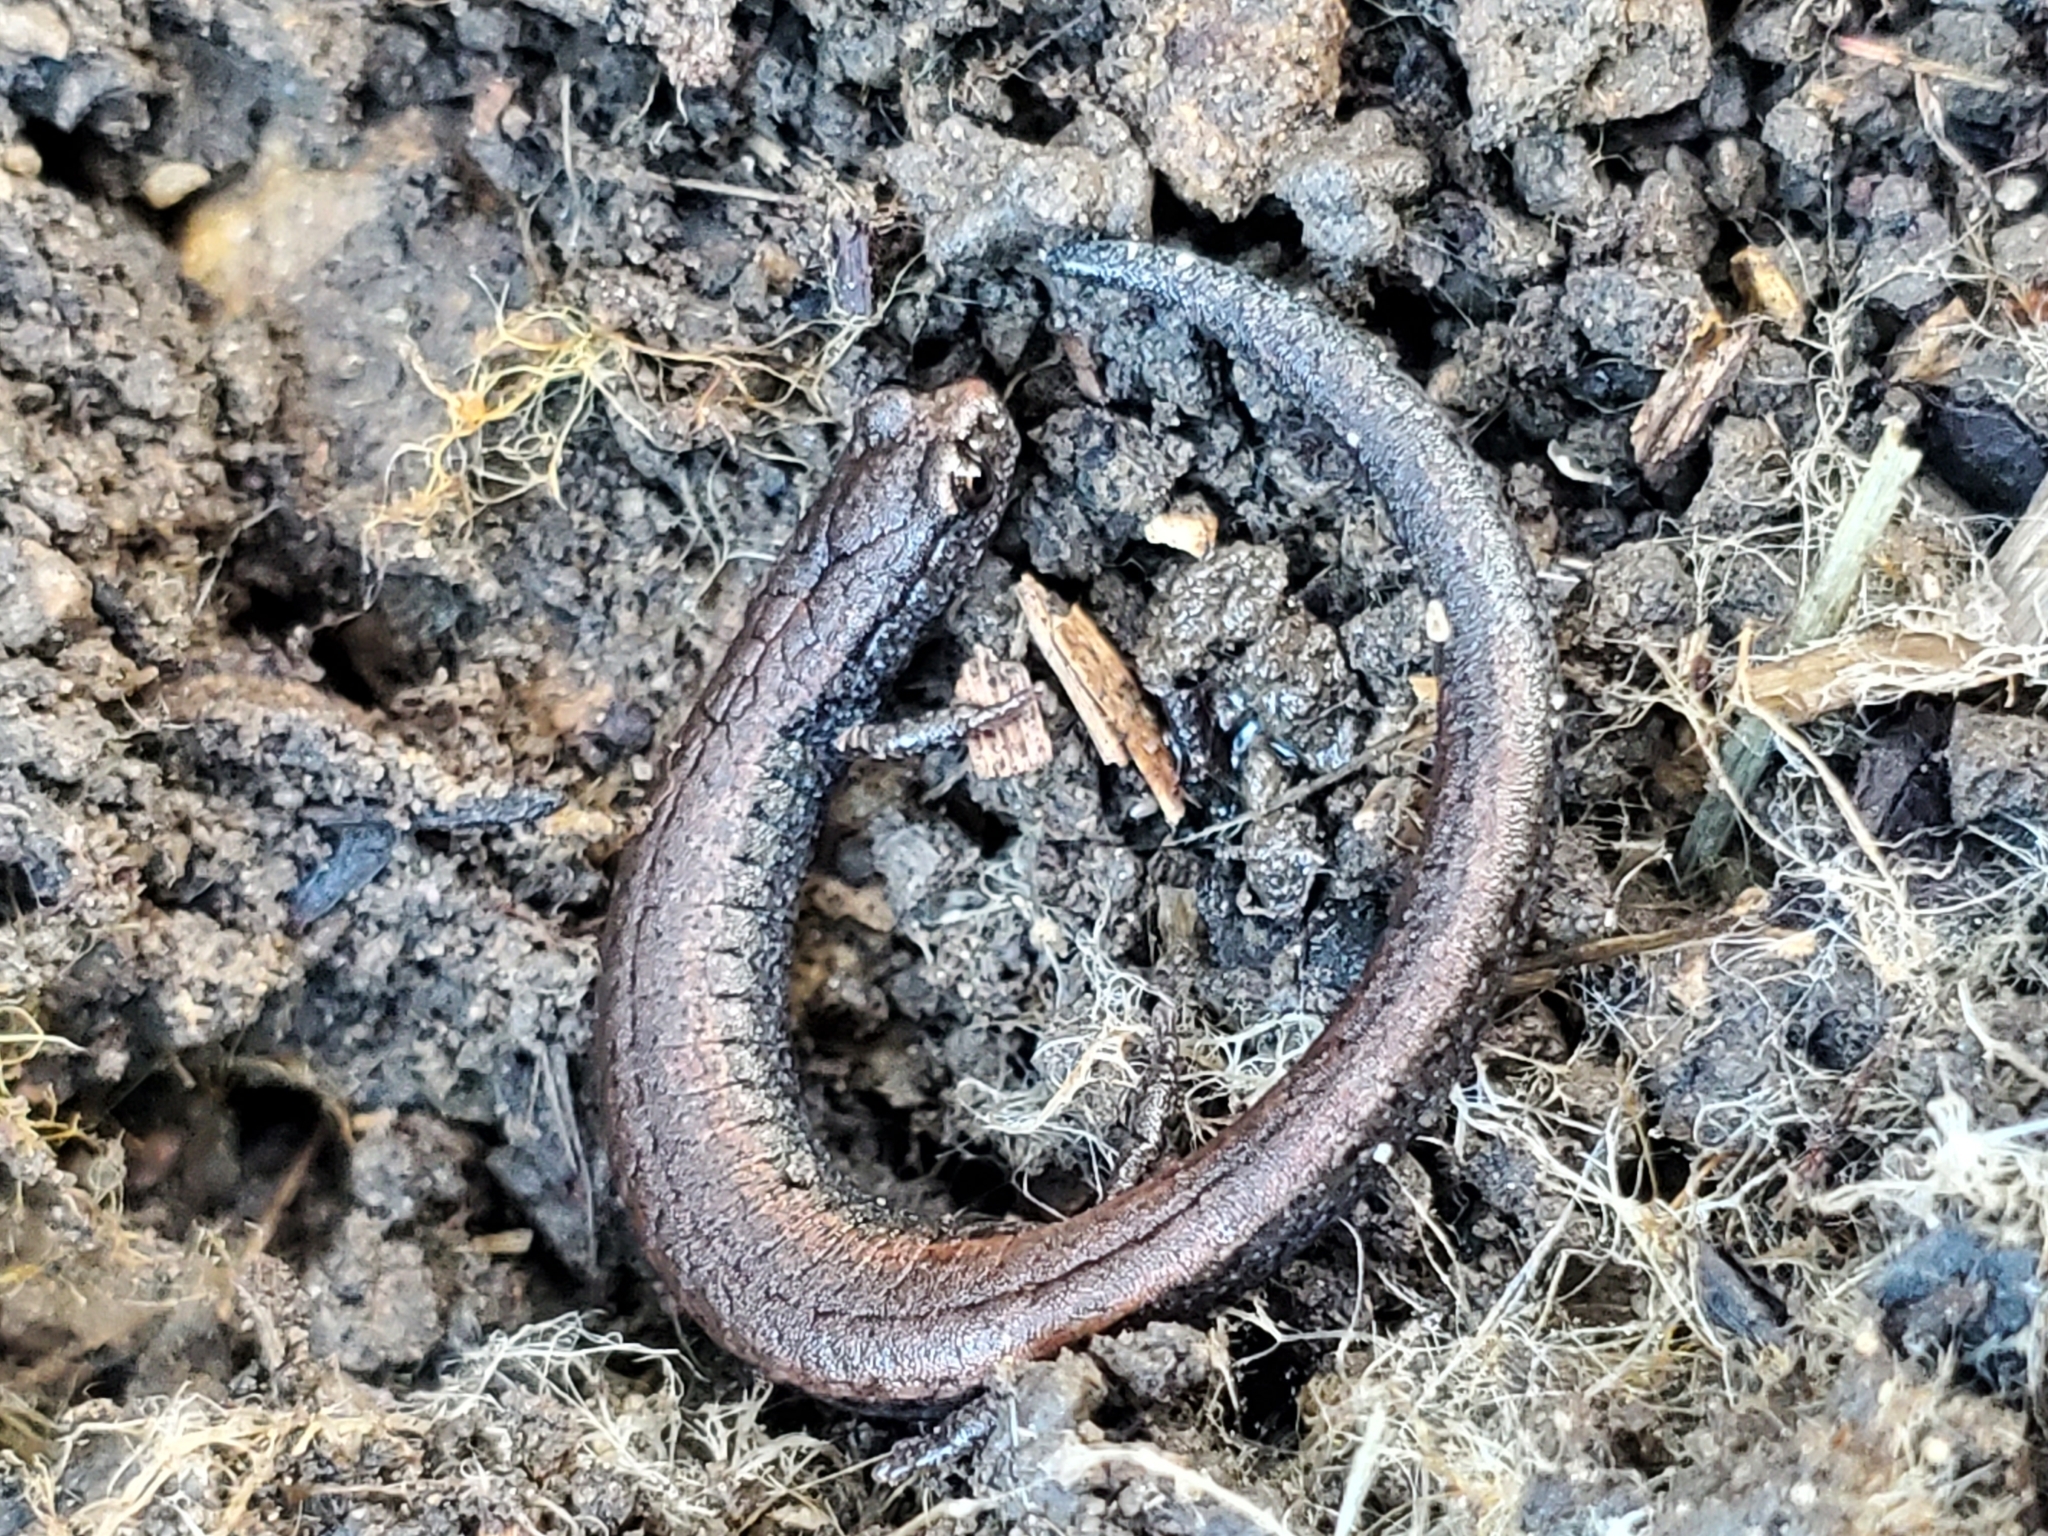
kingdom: Animalia
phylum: Chordata
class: Amphibia
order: Caudata
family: Plethodontidae
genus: Batrachoseps
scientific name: Batrachoseps nigriventris
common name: Black-bellied slender salamander
